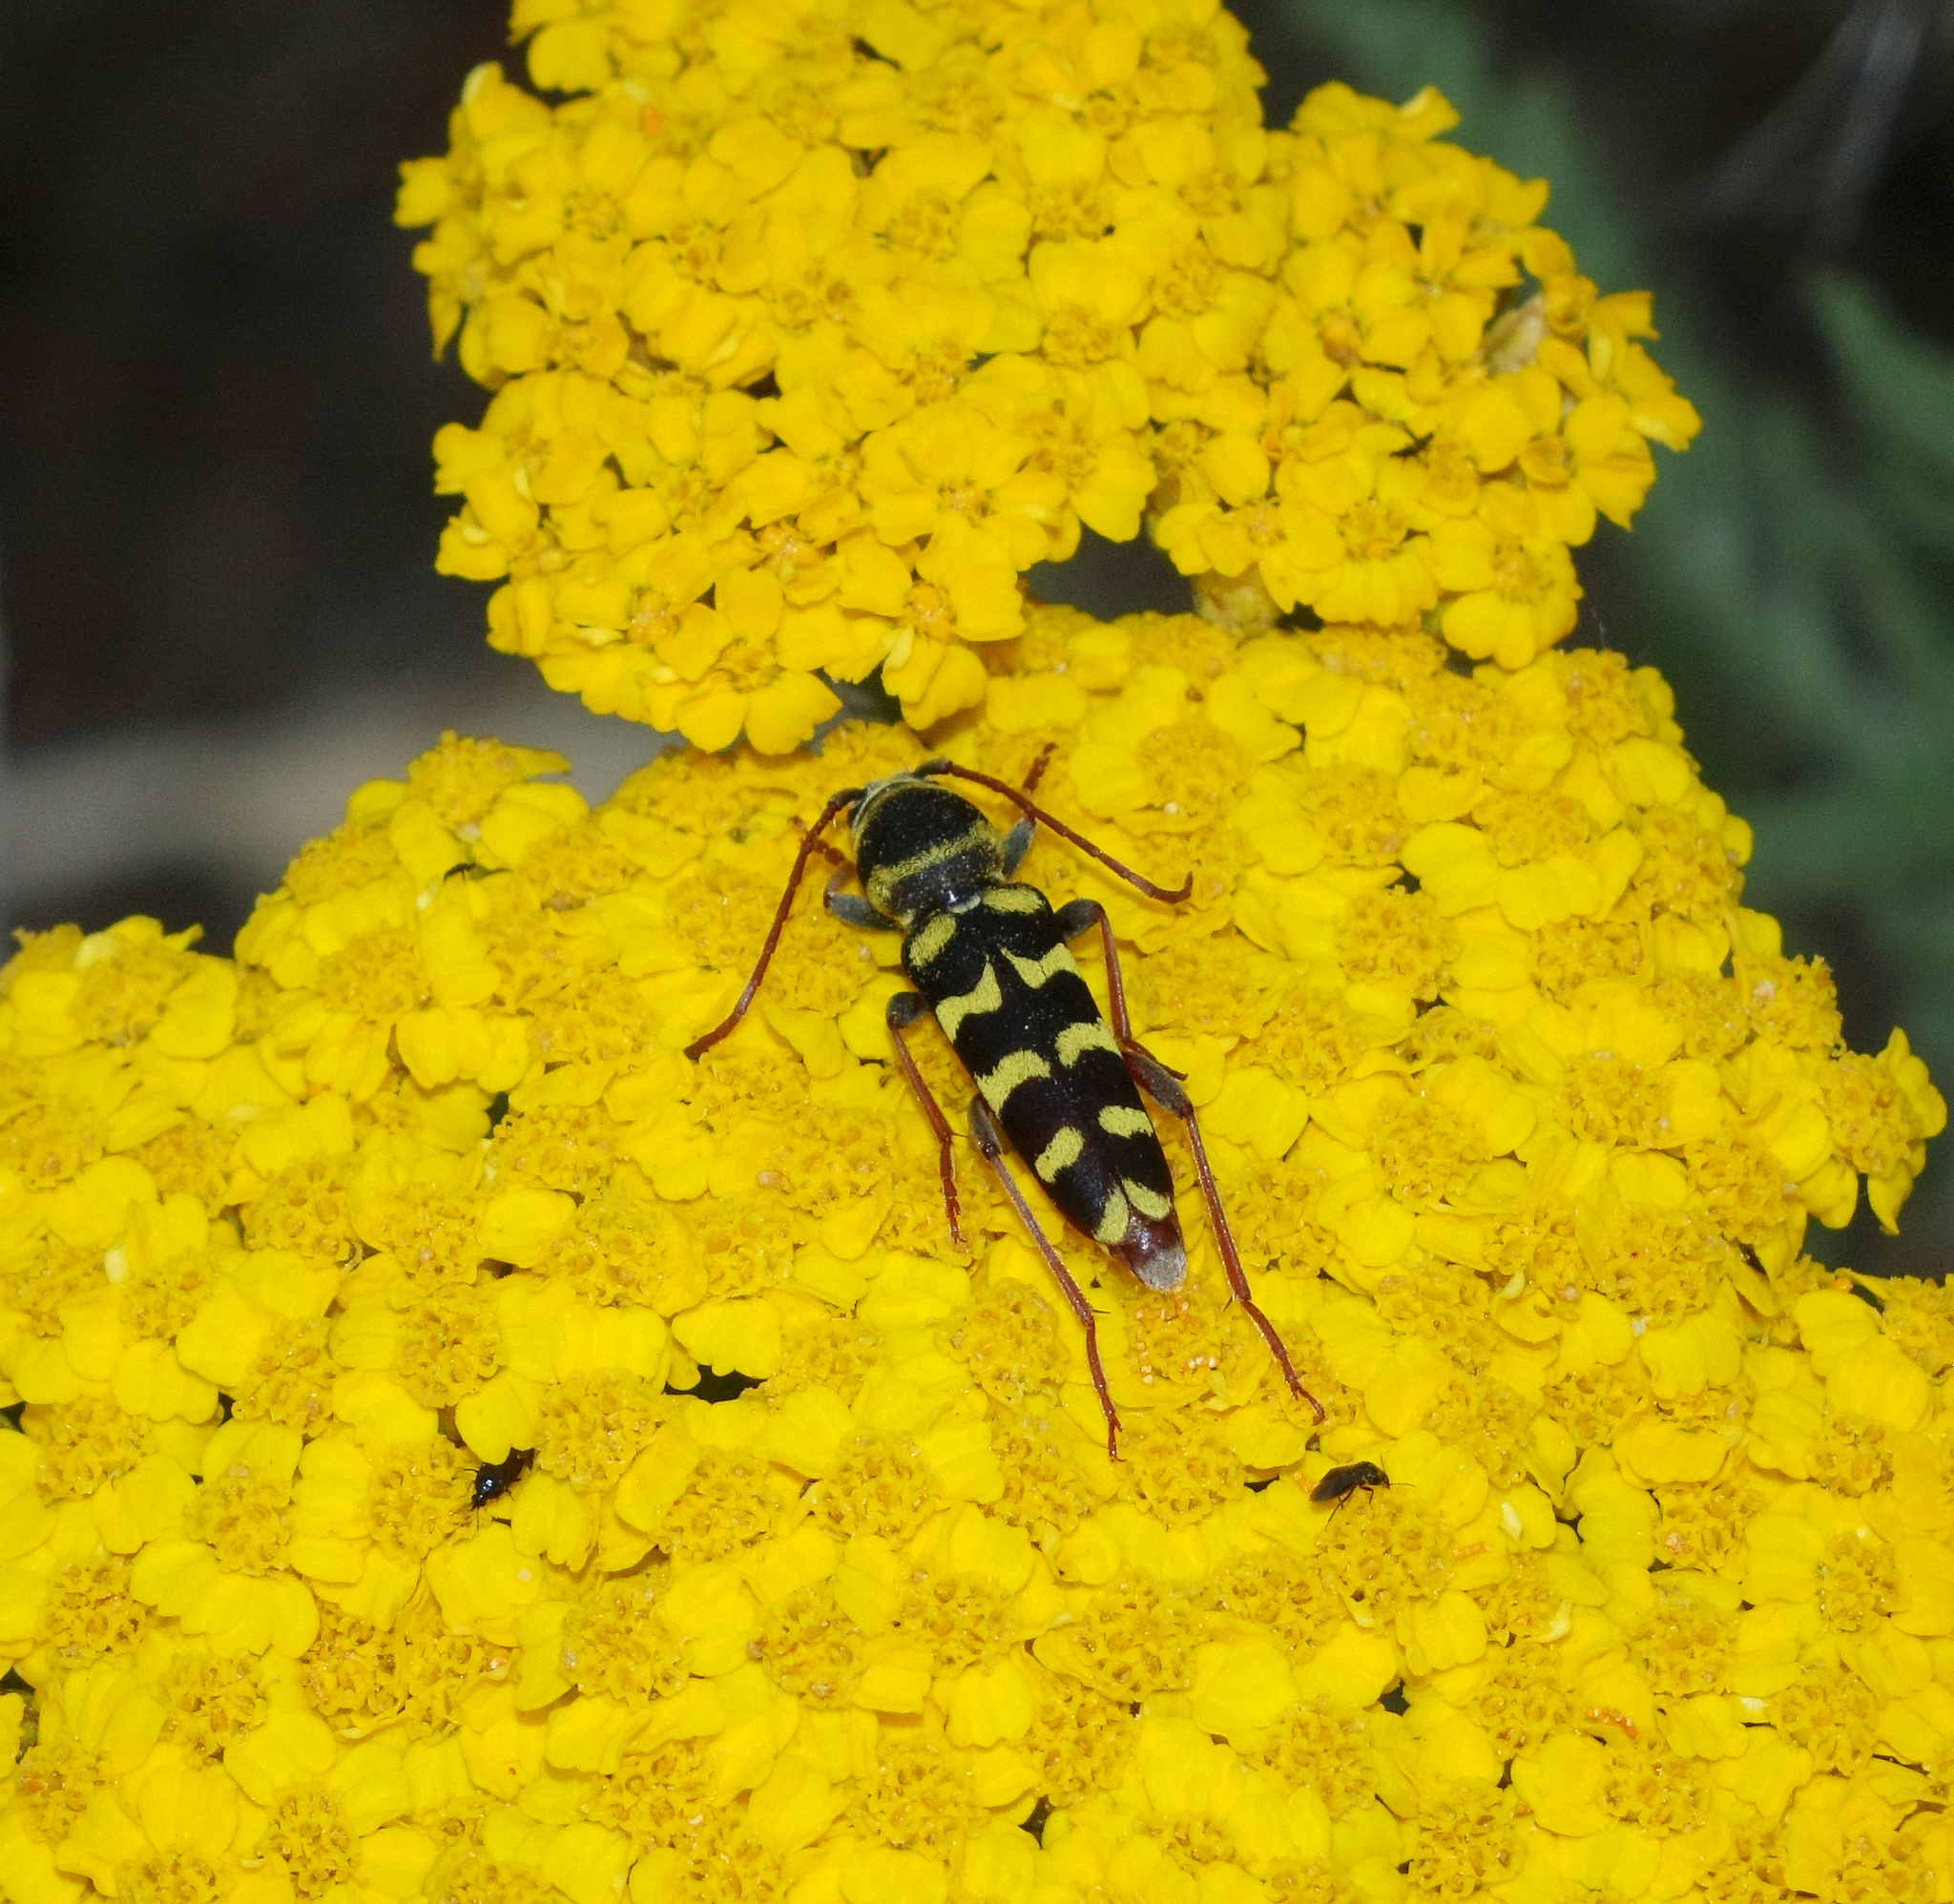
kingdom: Animalia
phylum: Arthropoda
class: Insecta
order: Coleoptera
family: Cerambycidae
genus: Plagionotus
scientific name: Plagionotus floralis
